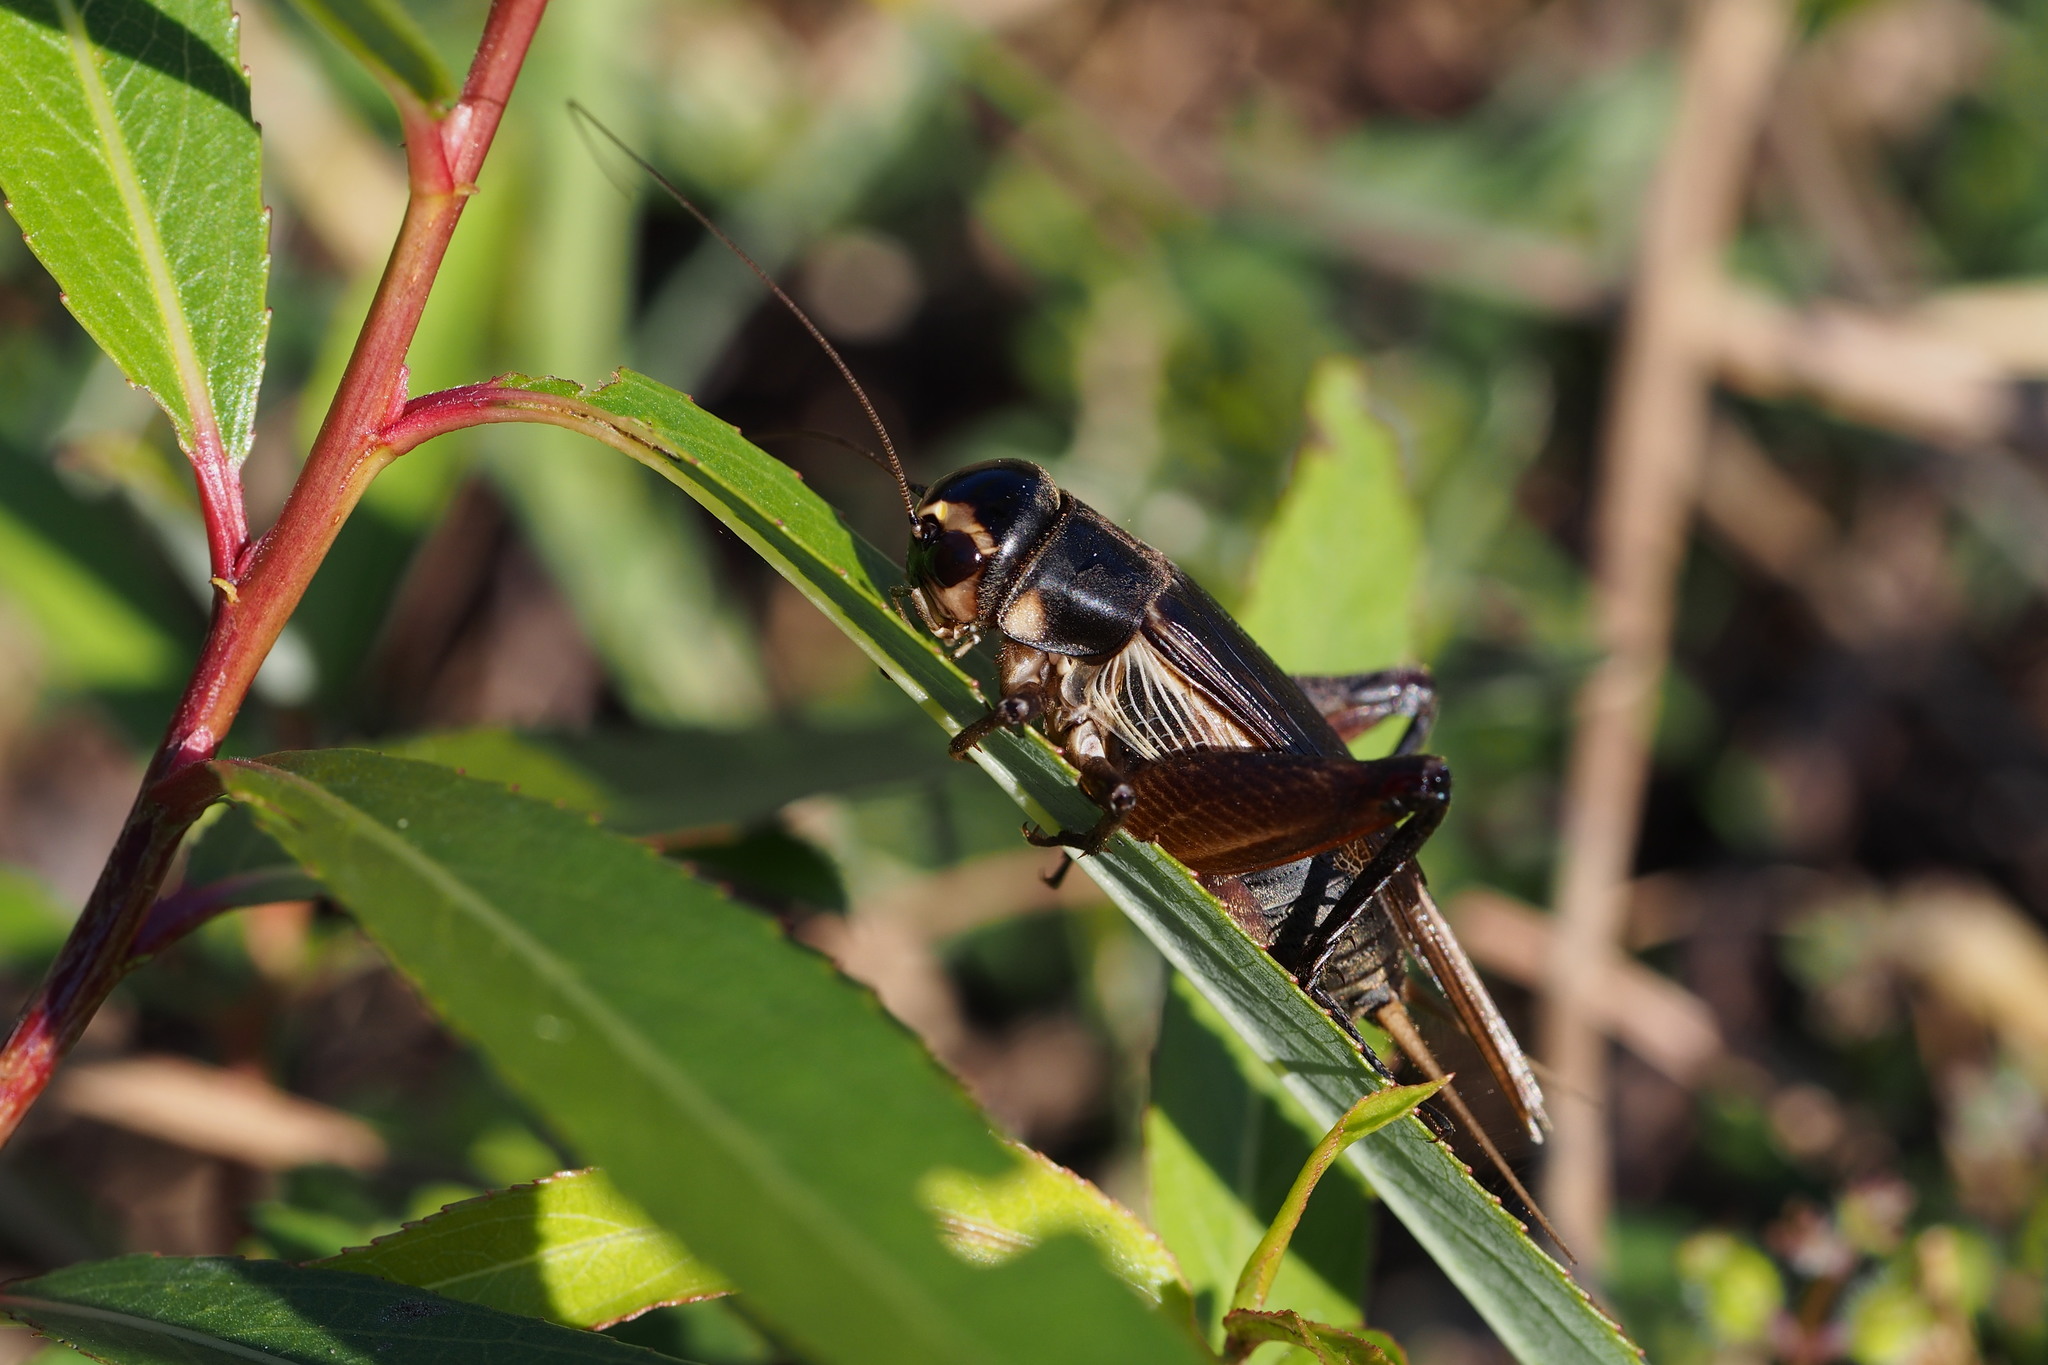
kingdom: Animalia
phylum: Arthropoda
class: Insecta
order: Orthoptera
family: Gryllidae
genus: Teleogryllus
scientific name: Teleogryllus emma
